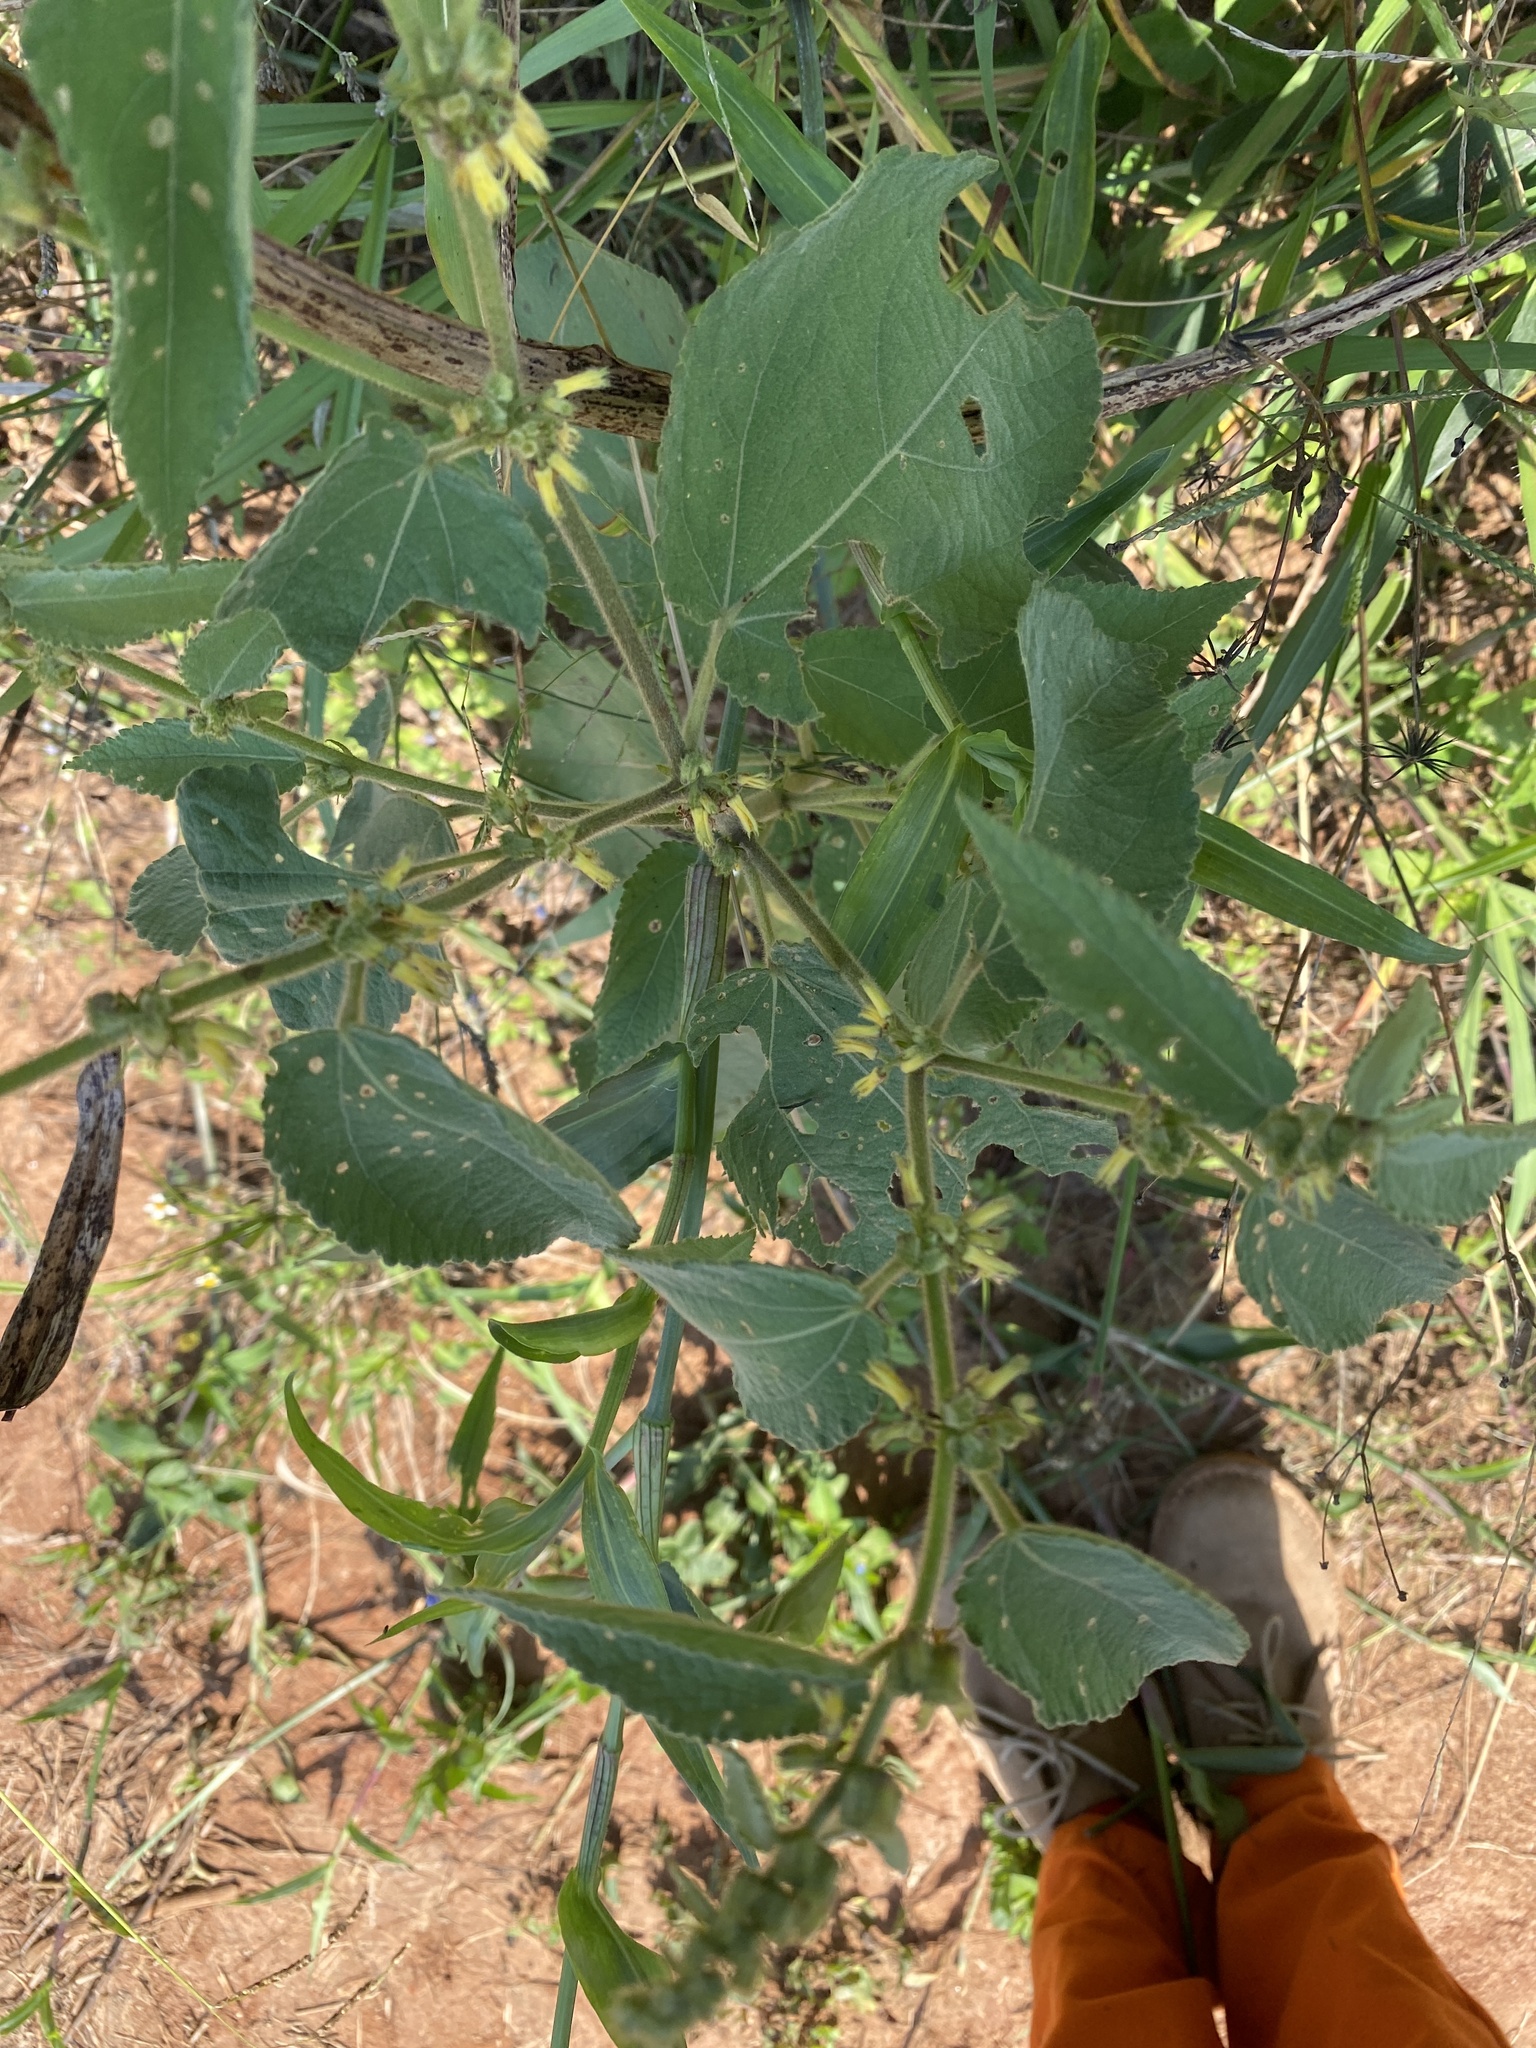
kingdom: Plantae
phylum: Tracheophyta
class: Magnoliopsida
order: Malvales
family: Malvaceae
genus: Triumfetta
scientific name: Triumfetta pilosa
